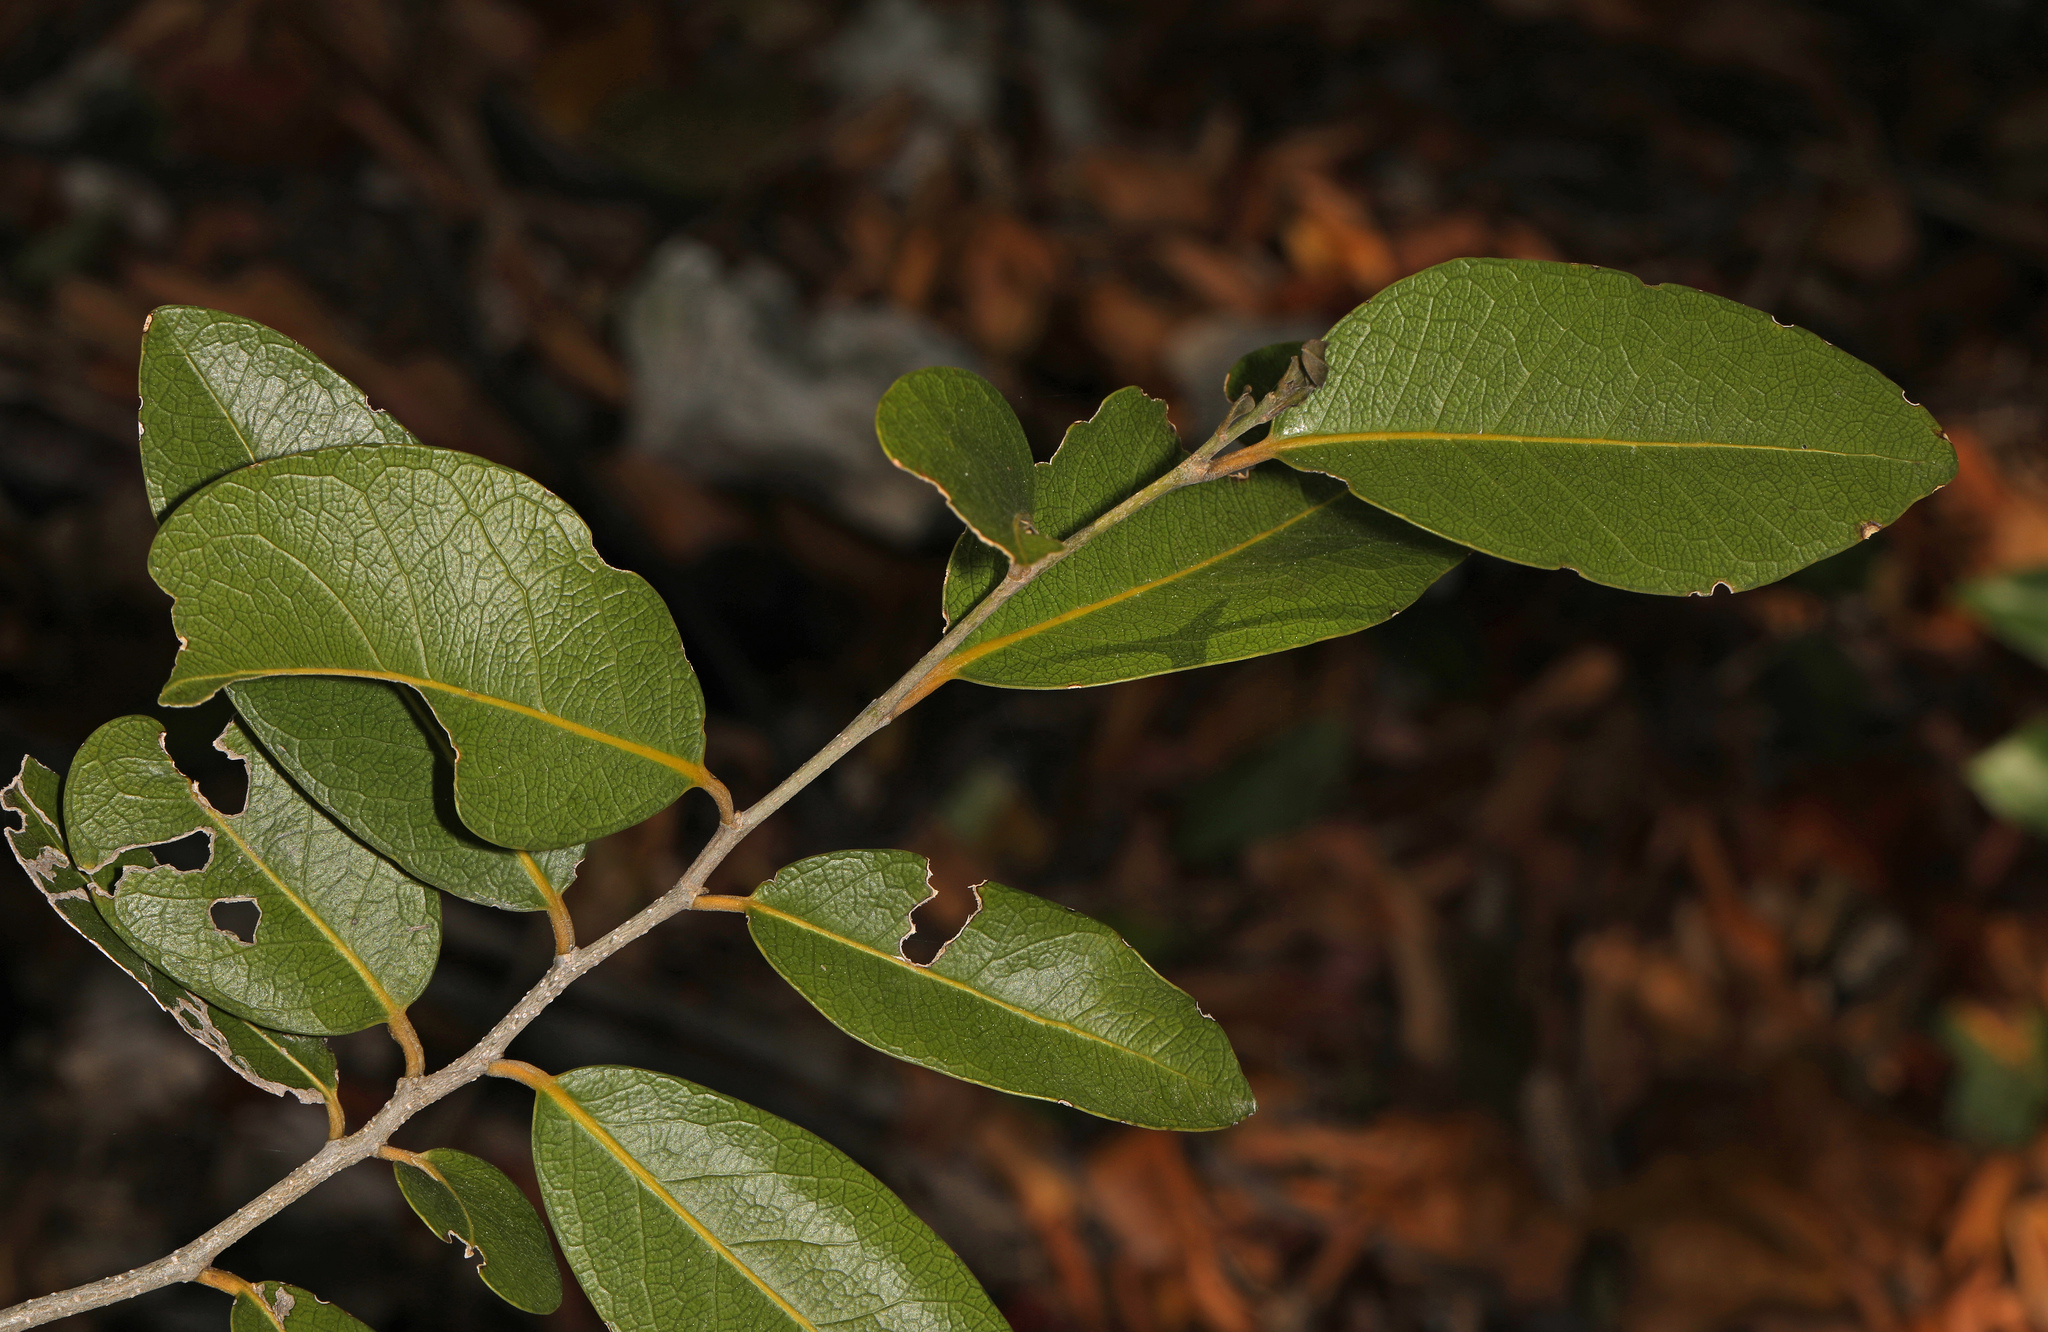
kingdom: Plantae
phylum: Tracheophyta
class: Magnoliopsida
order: Malpighiales
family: Putranjivaceae
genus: Drypetes
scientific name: Drypetes diversifolia
